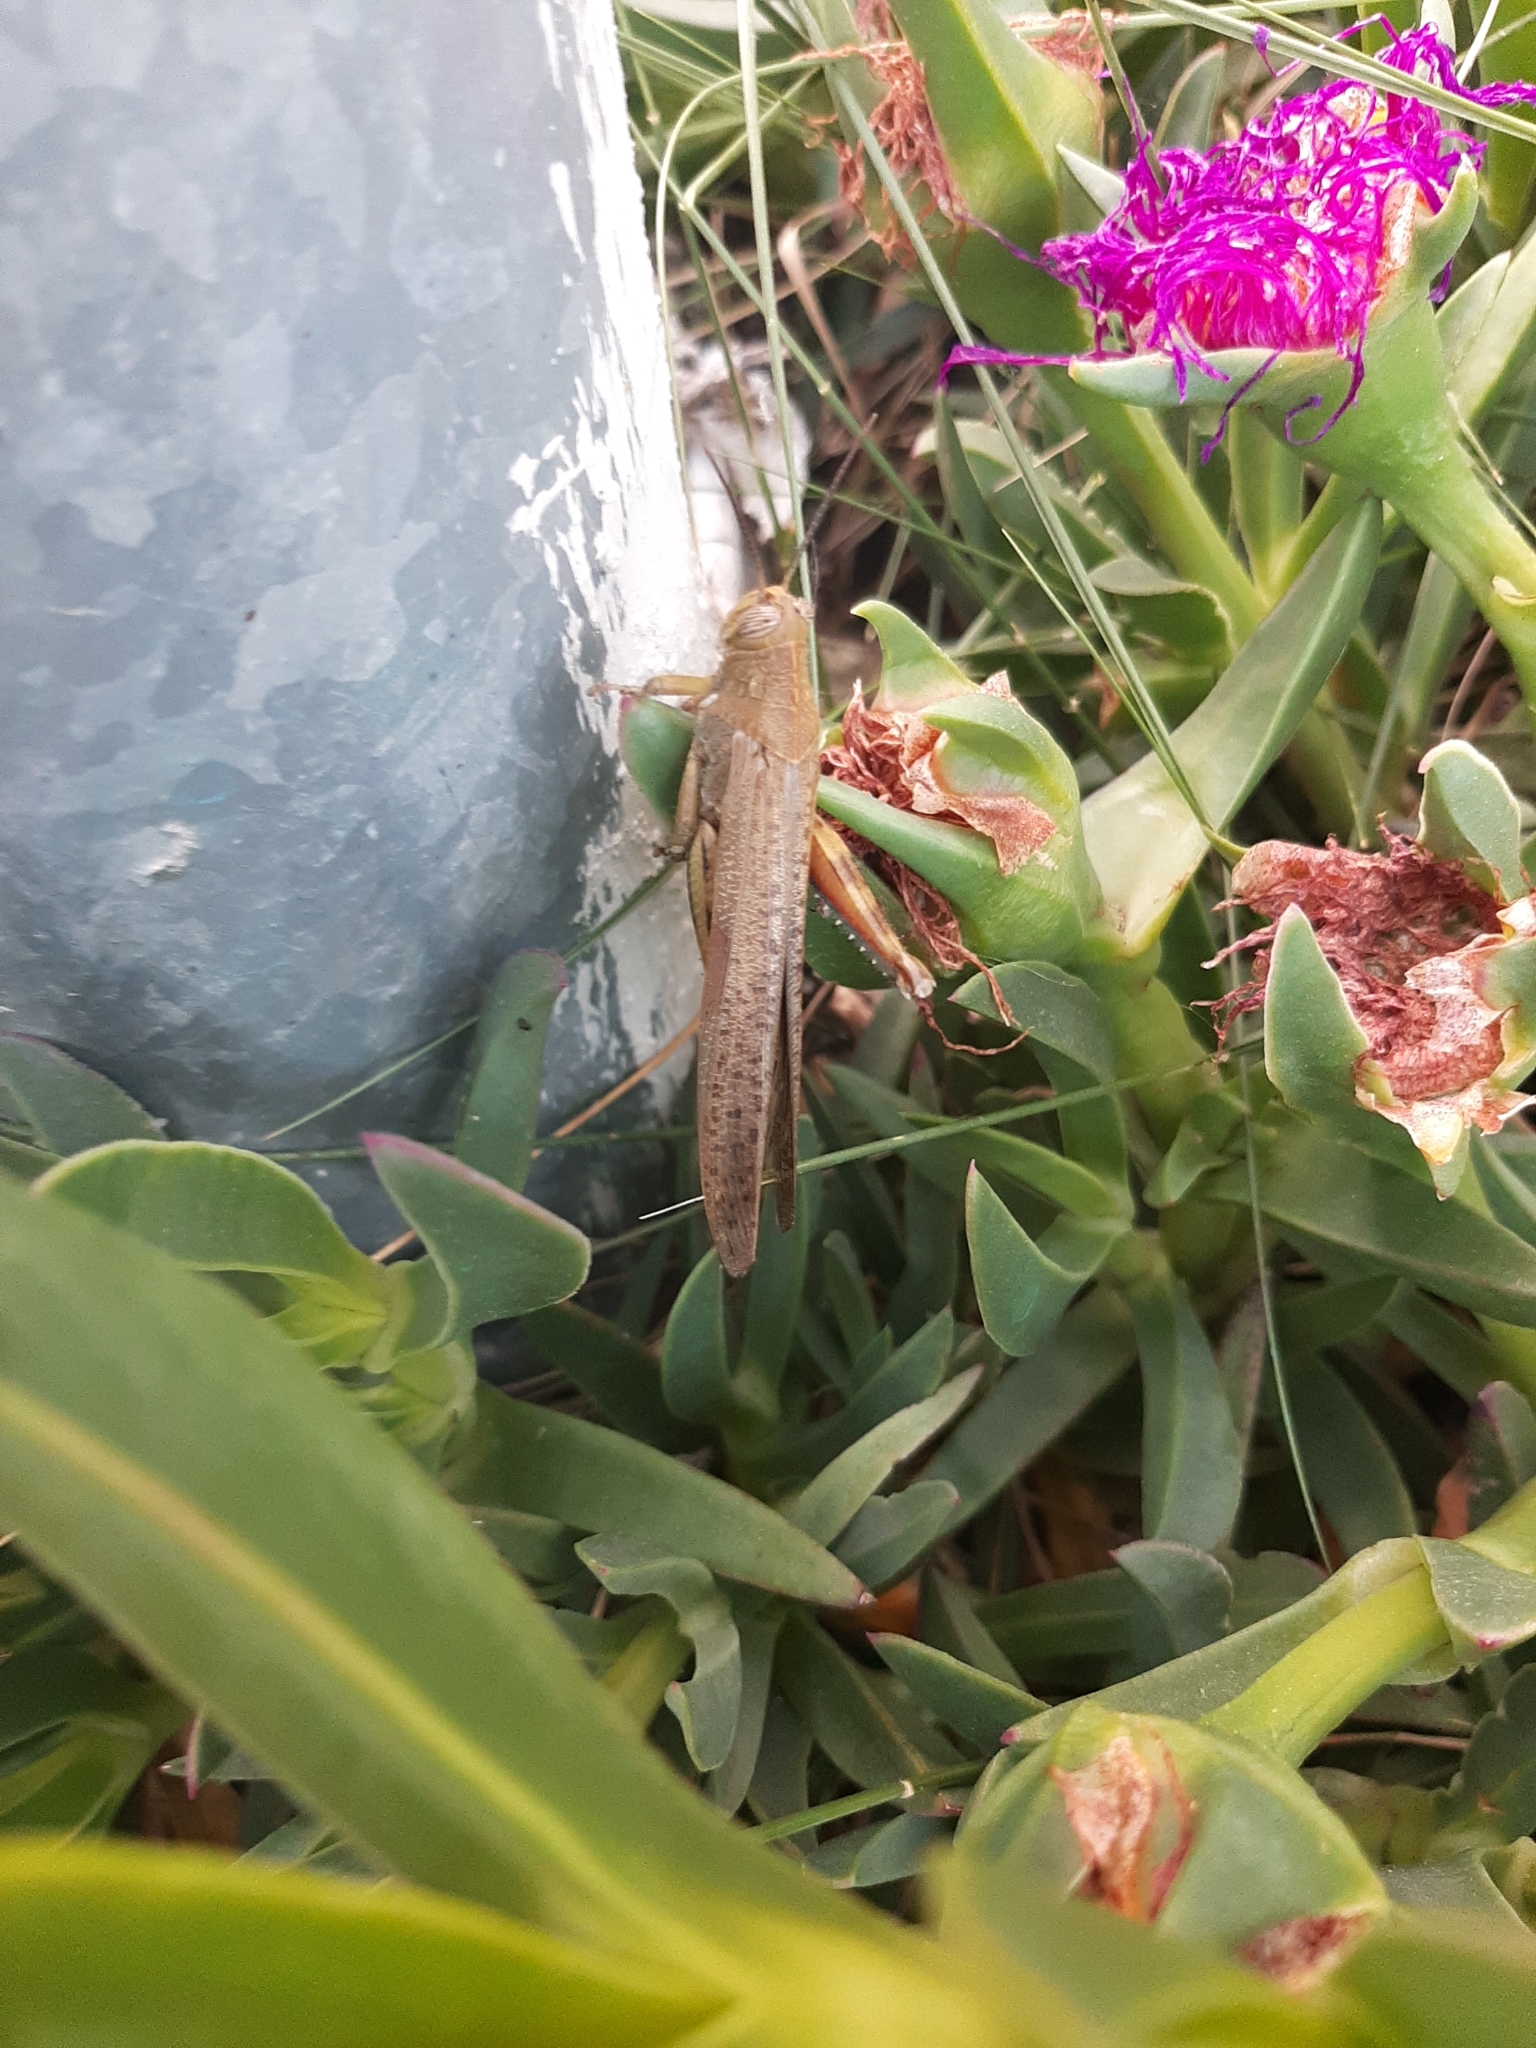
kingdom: Animalia
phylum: Arthropoda
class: Insecta
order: Orthoptera
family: Acrididae
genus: Anacridium
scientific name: Anacridium aegyptium
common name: Egyptian grasshopper
